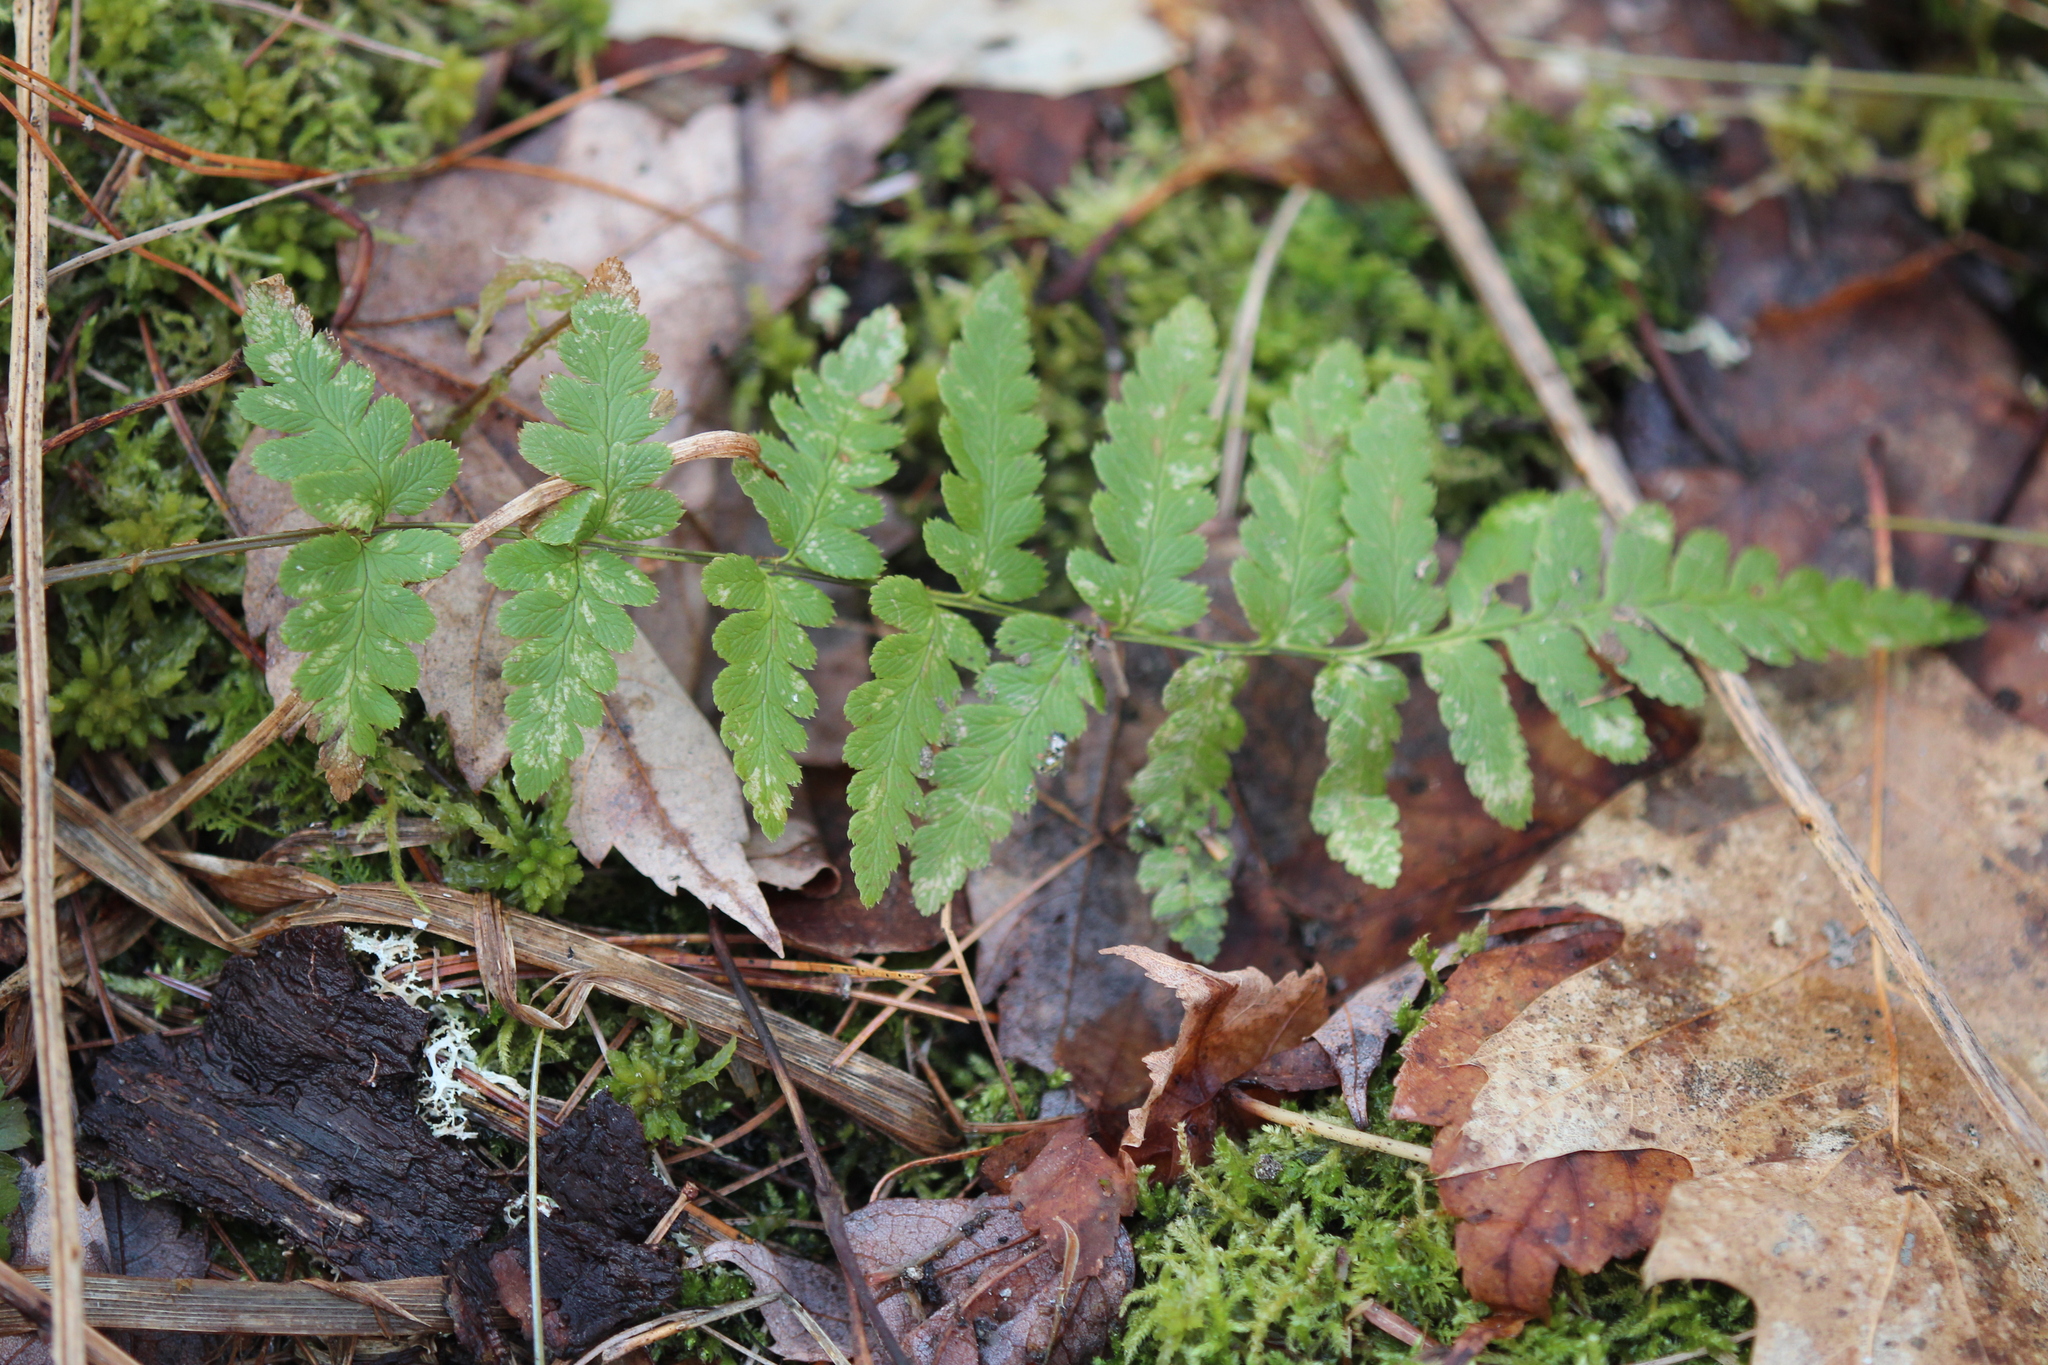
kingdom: Plantae
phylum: Tracheophyta
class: Polypodiopsida
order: Polypodiales
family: Dryopteridaceae
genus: Dryopteris
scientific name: Dryopteris cristata
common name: Crested wood fern
